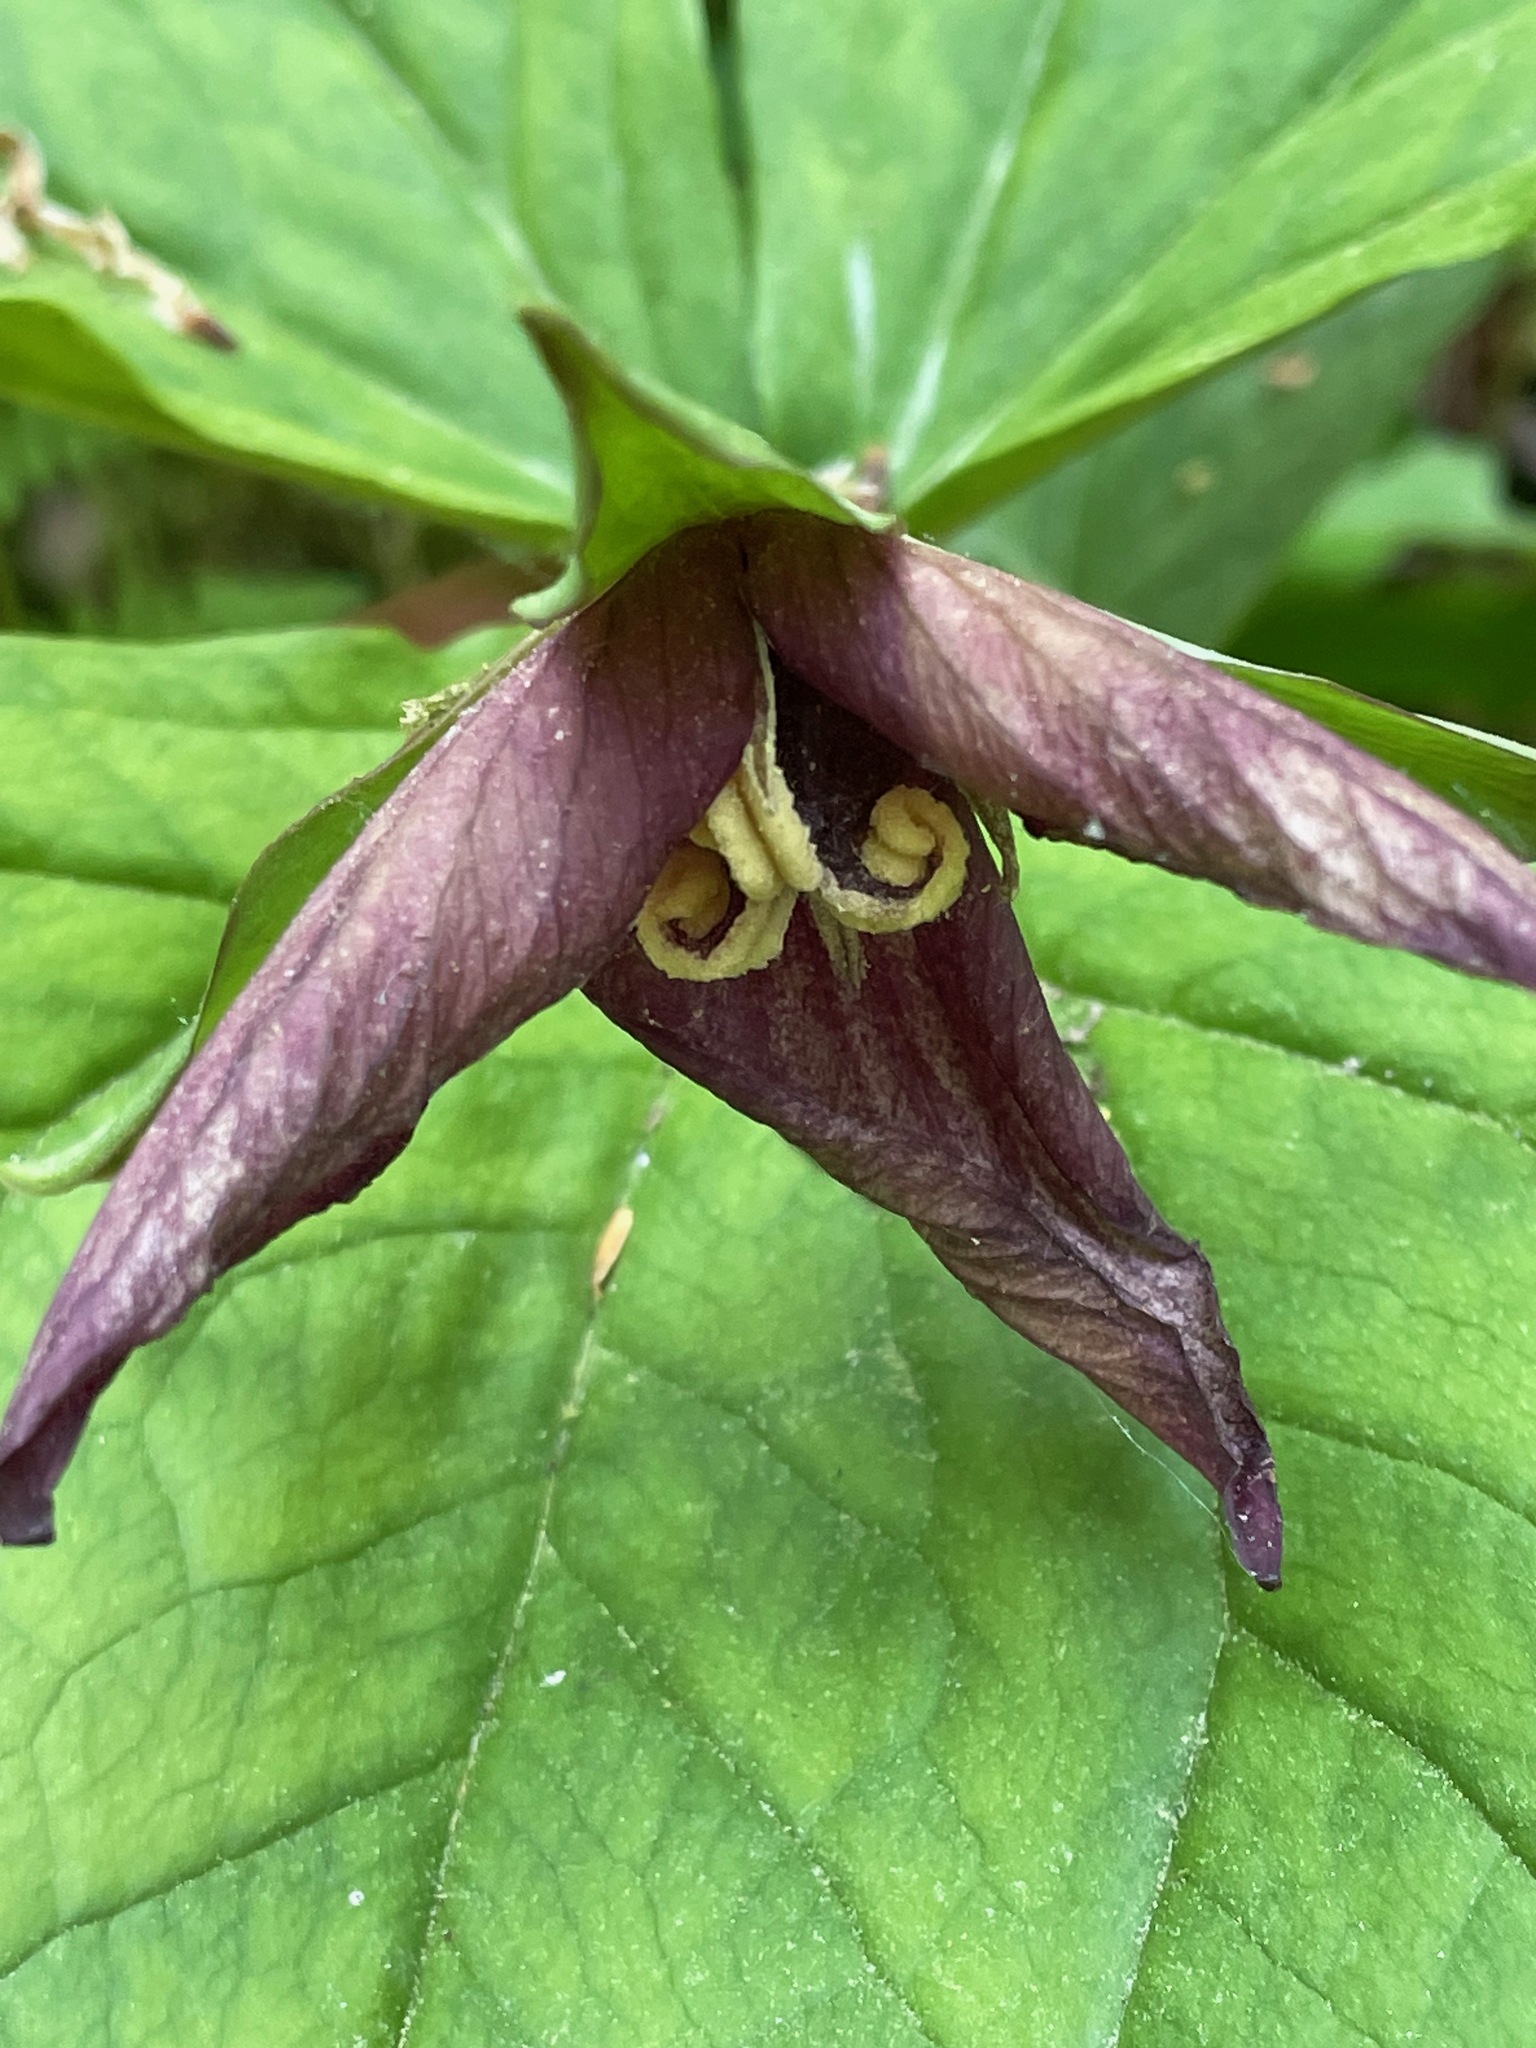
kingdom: Plantae
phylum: Tracheophyta
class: Liliopsida
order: Liliales
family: Melanthiaceae
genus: Trillium
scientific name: Trillium erectum
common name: Purple trillium
